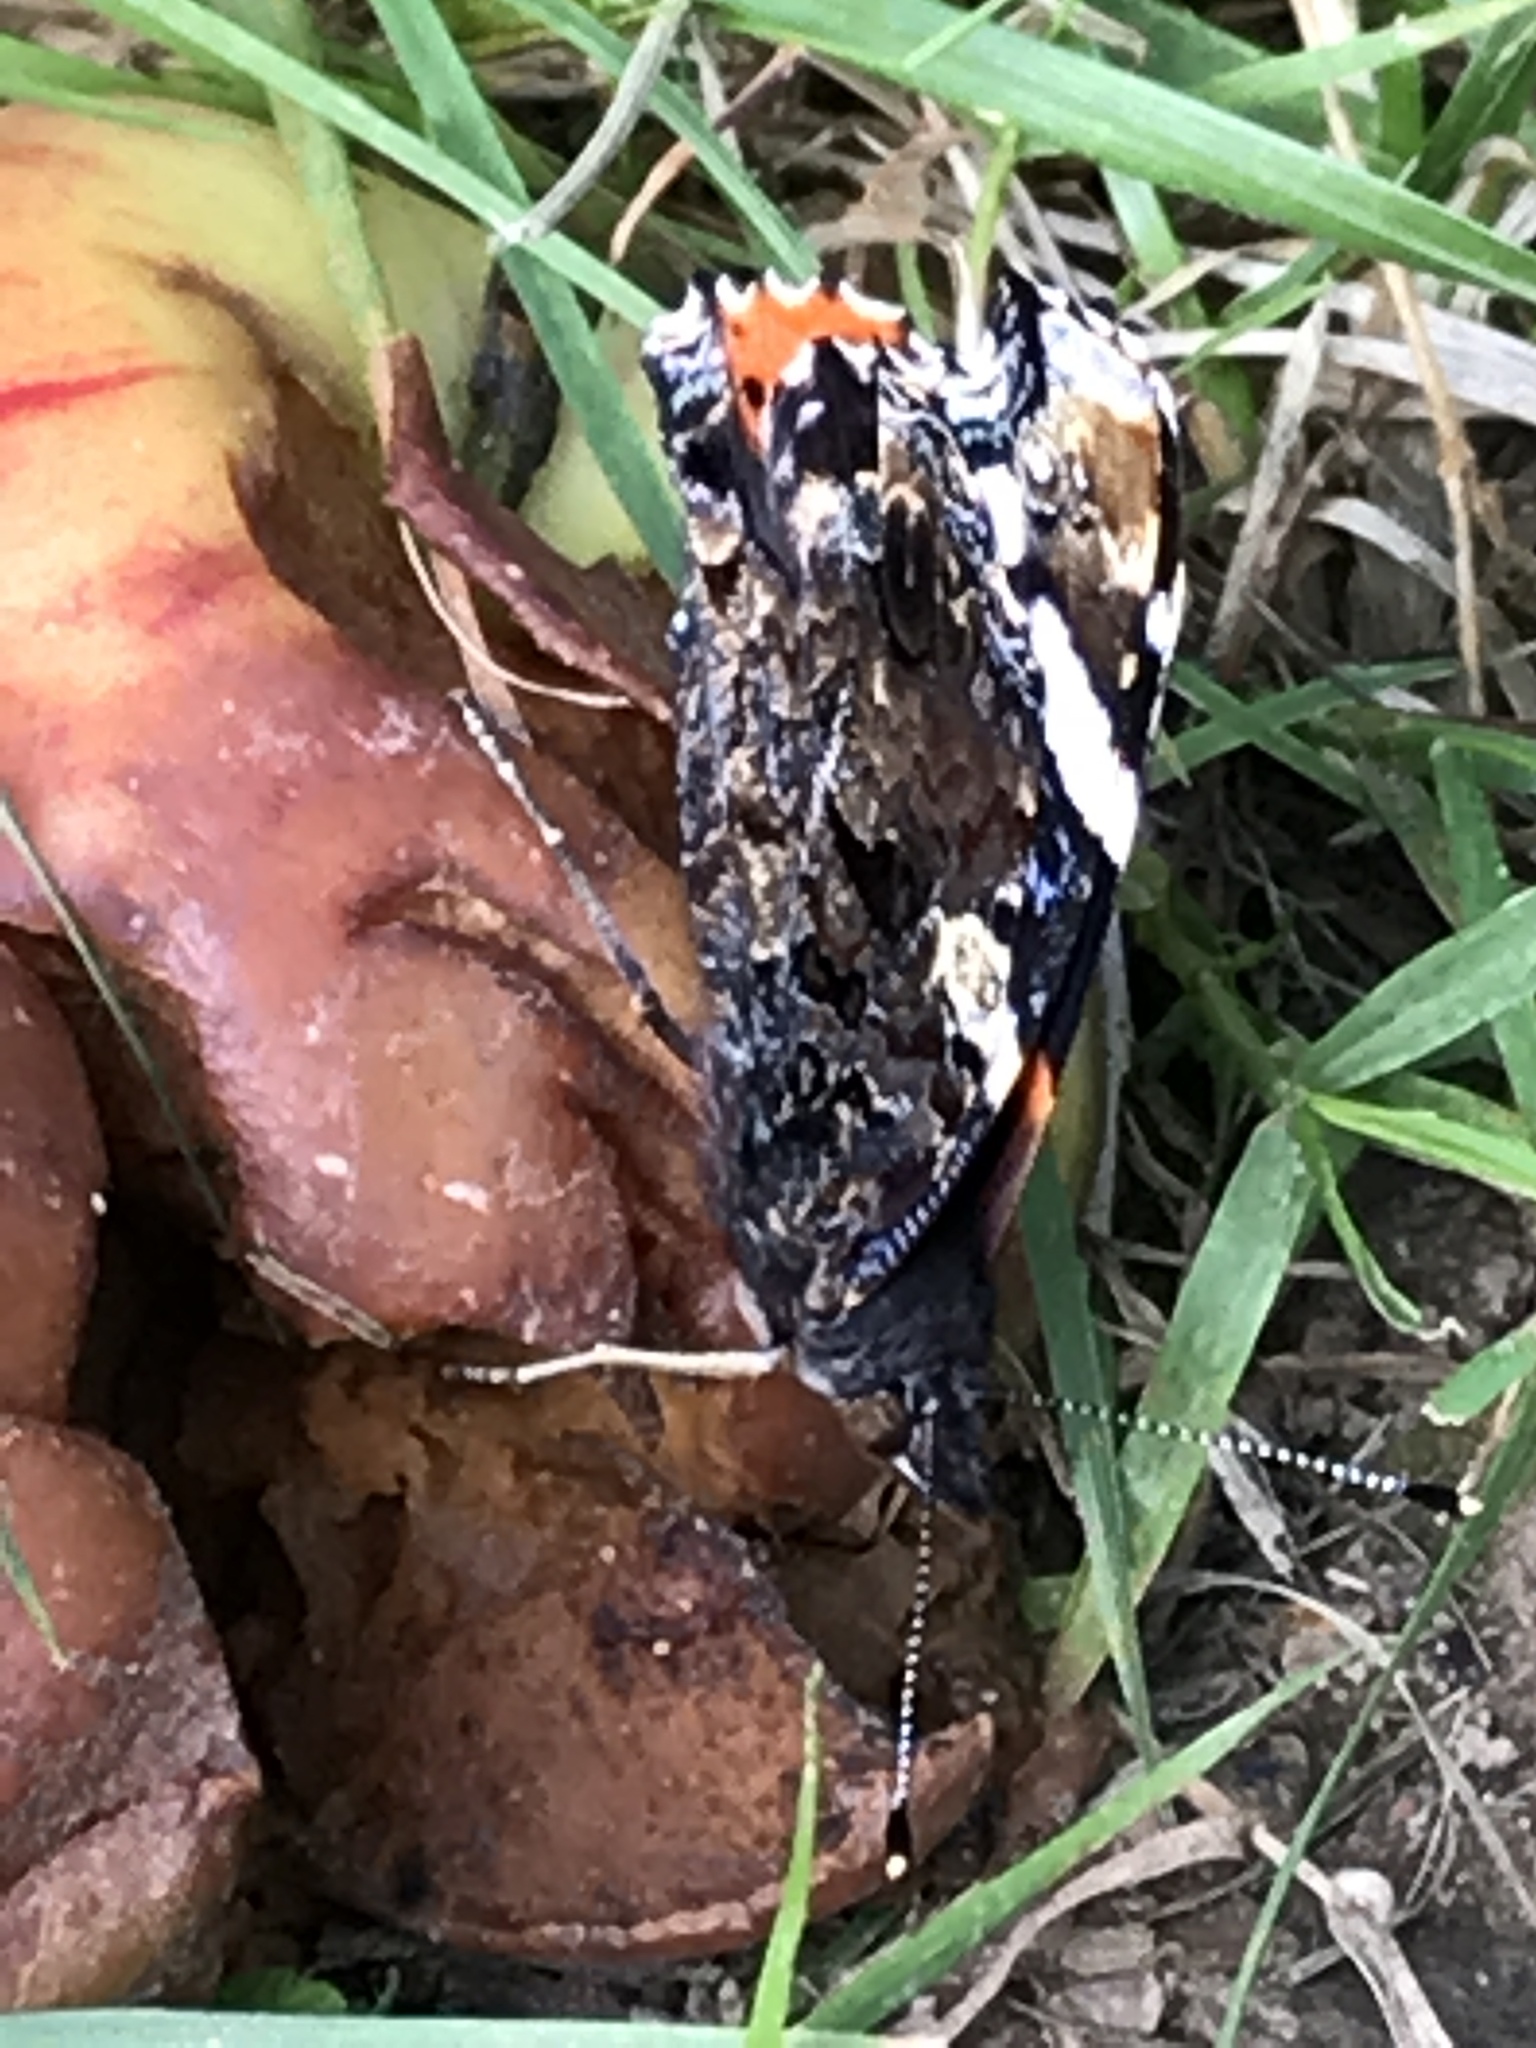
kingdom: Animalia
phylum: Arthropoda
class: Insecta
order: Lepidoptera
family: Nymphalidae
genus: Vanessa
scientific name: Vanessa atalanta
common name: Red admiral
